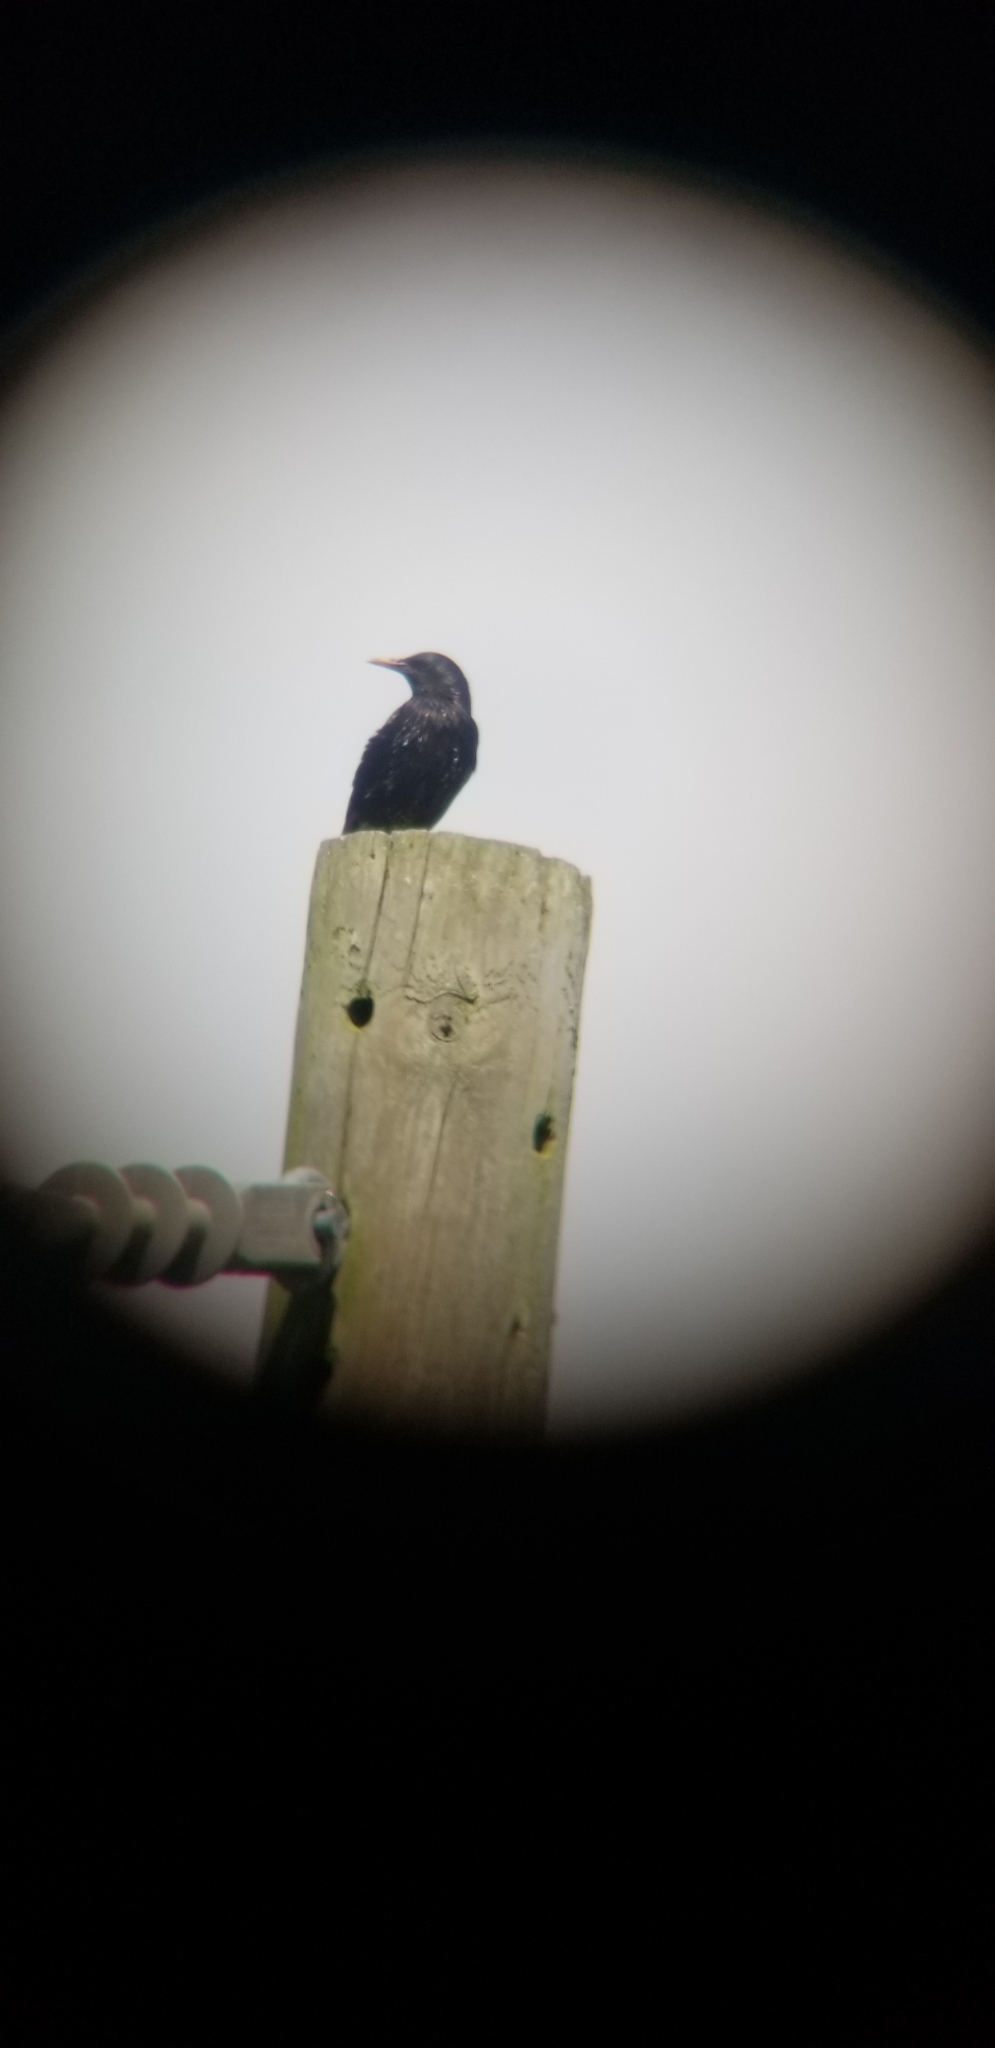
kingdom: Animalia
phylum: Chordata
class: Aves
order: Passeriformes
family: Sturnidae
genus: Sturnus
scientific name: Sturnus vulgaris
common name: Common starling
